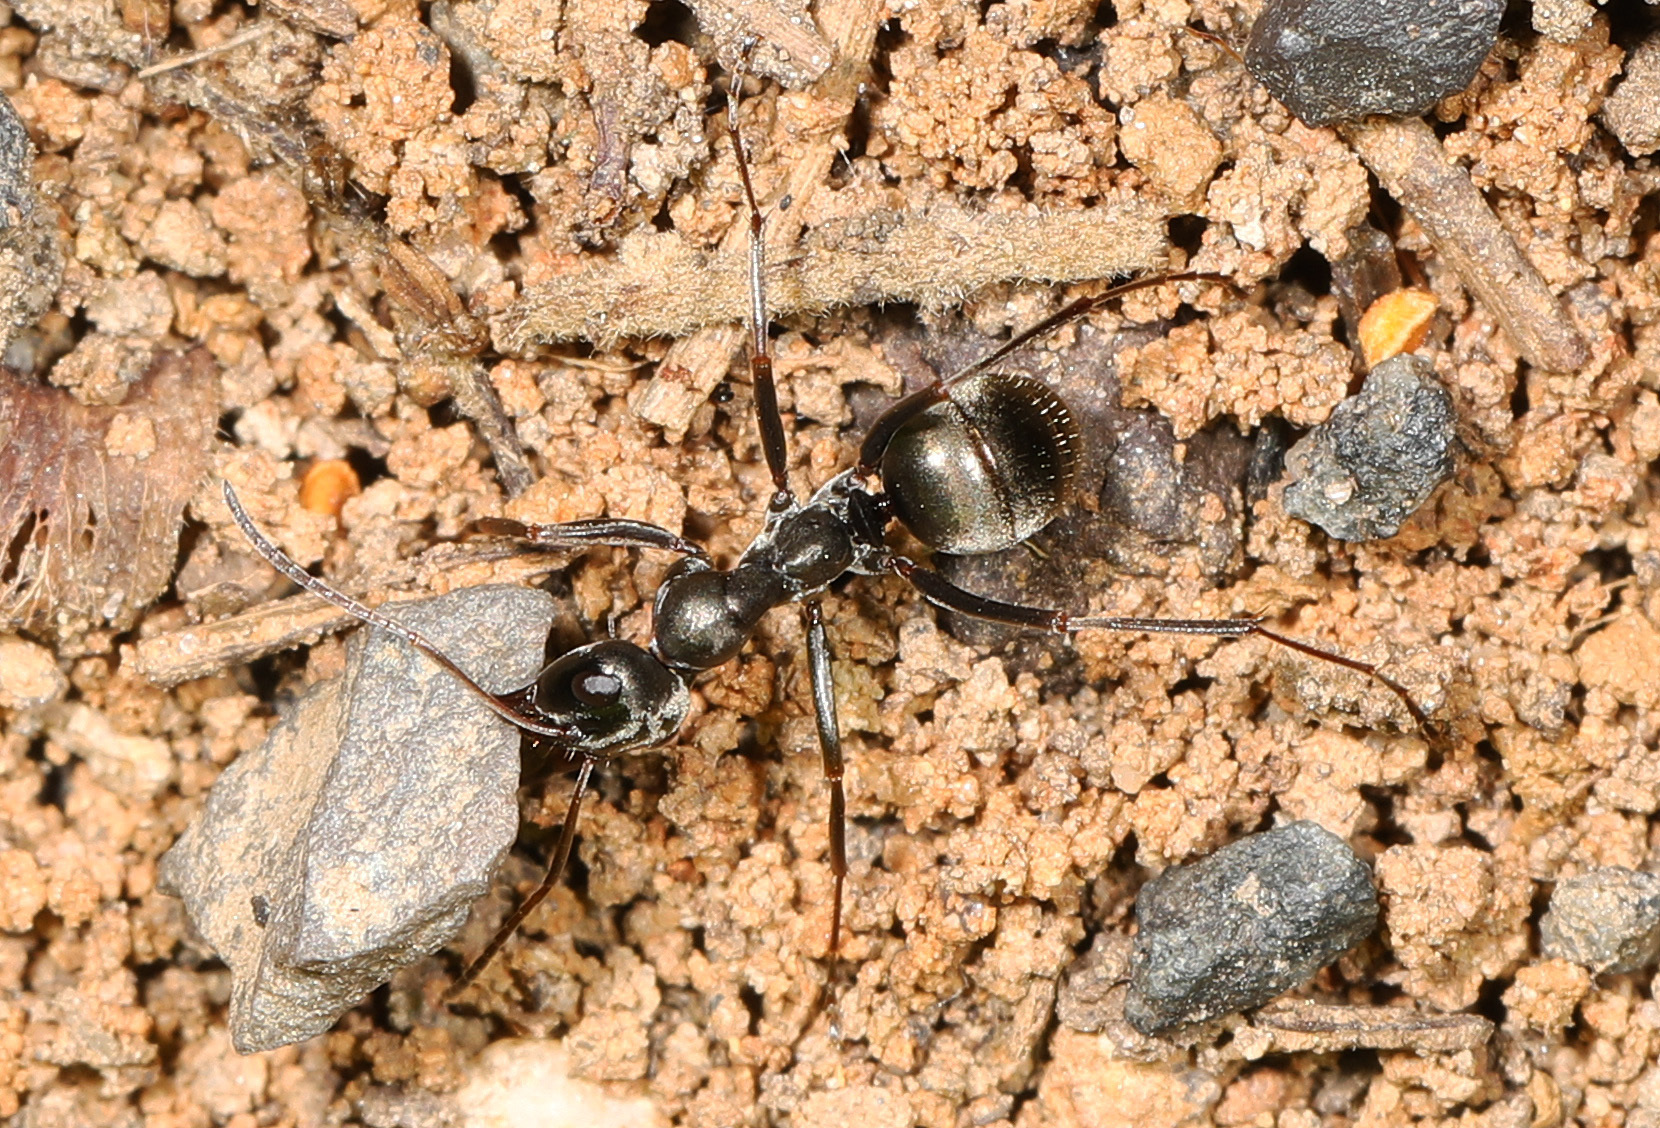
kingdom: Animalia
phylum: Arthropoda
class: Insecta
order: Hymenoptera
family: Formicidae
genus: Formica
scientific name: Formica subsericea
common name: Silky field ant
